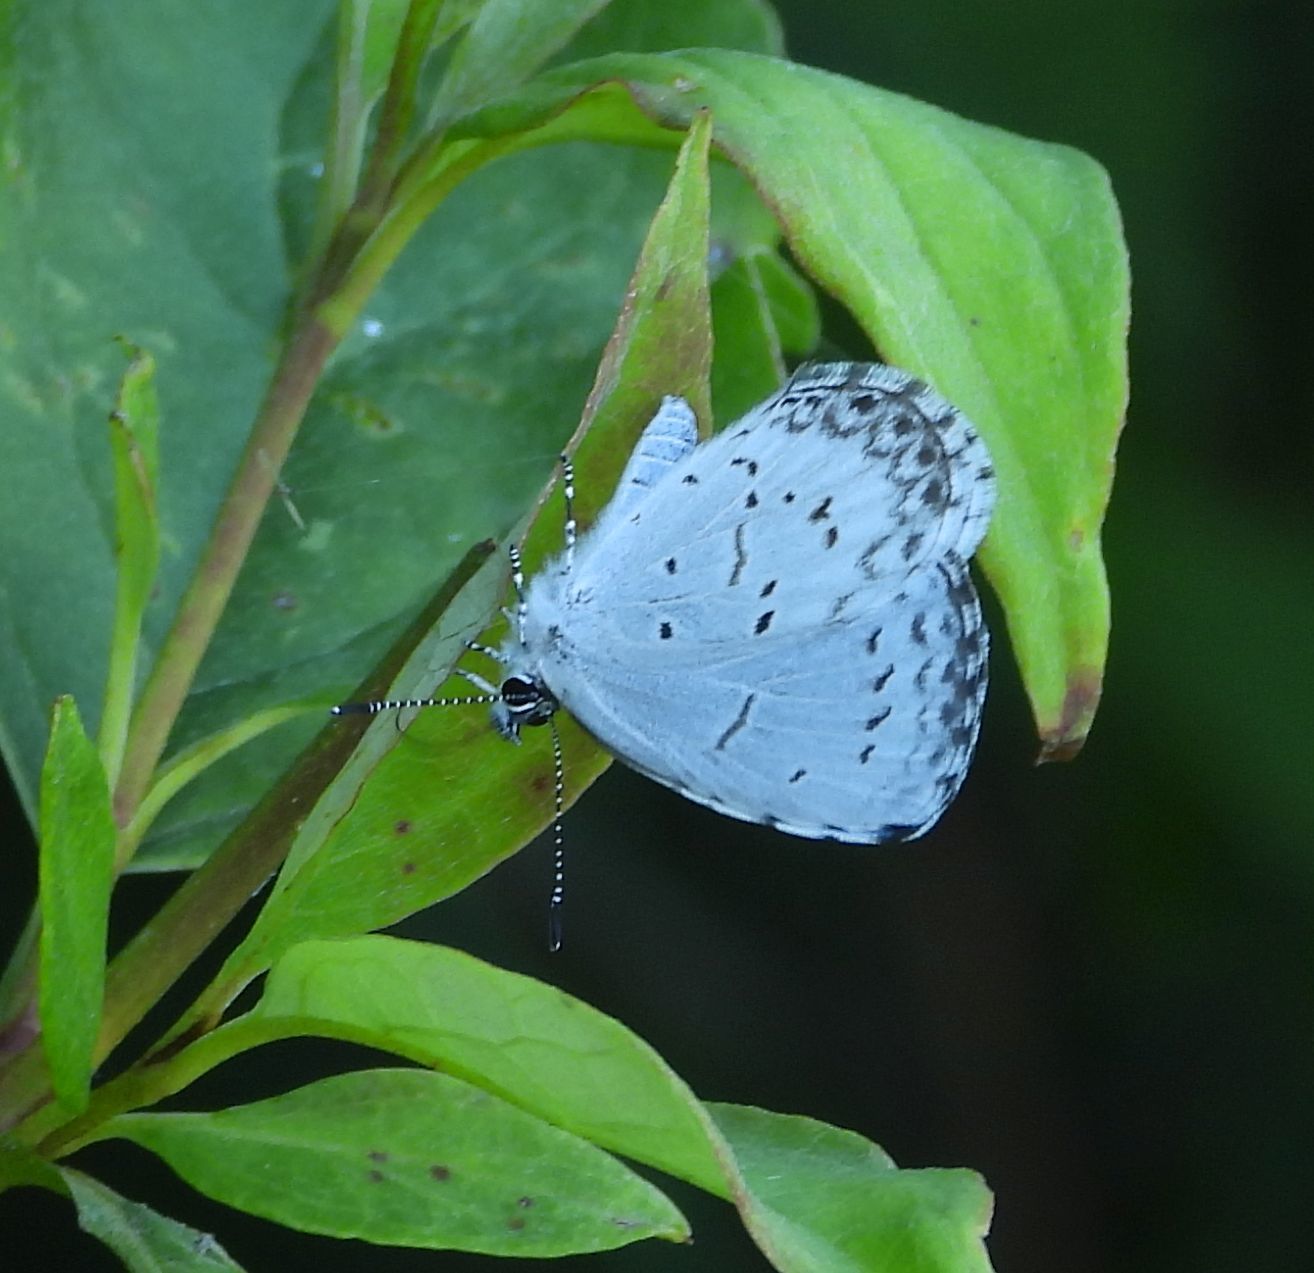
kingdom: Animalia
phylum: Arthropoda
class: Insecta
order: Lepidoptera
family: Lycaenidae
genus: Celastrina
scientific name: Celastrina lucia
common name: Lucia azure
